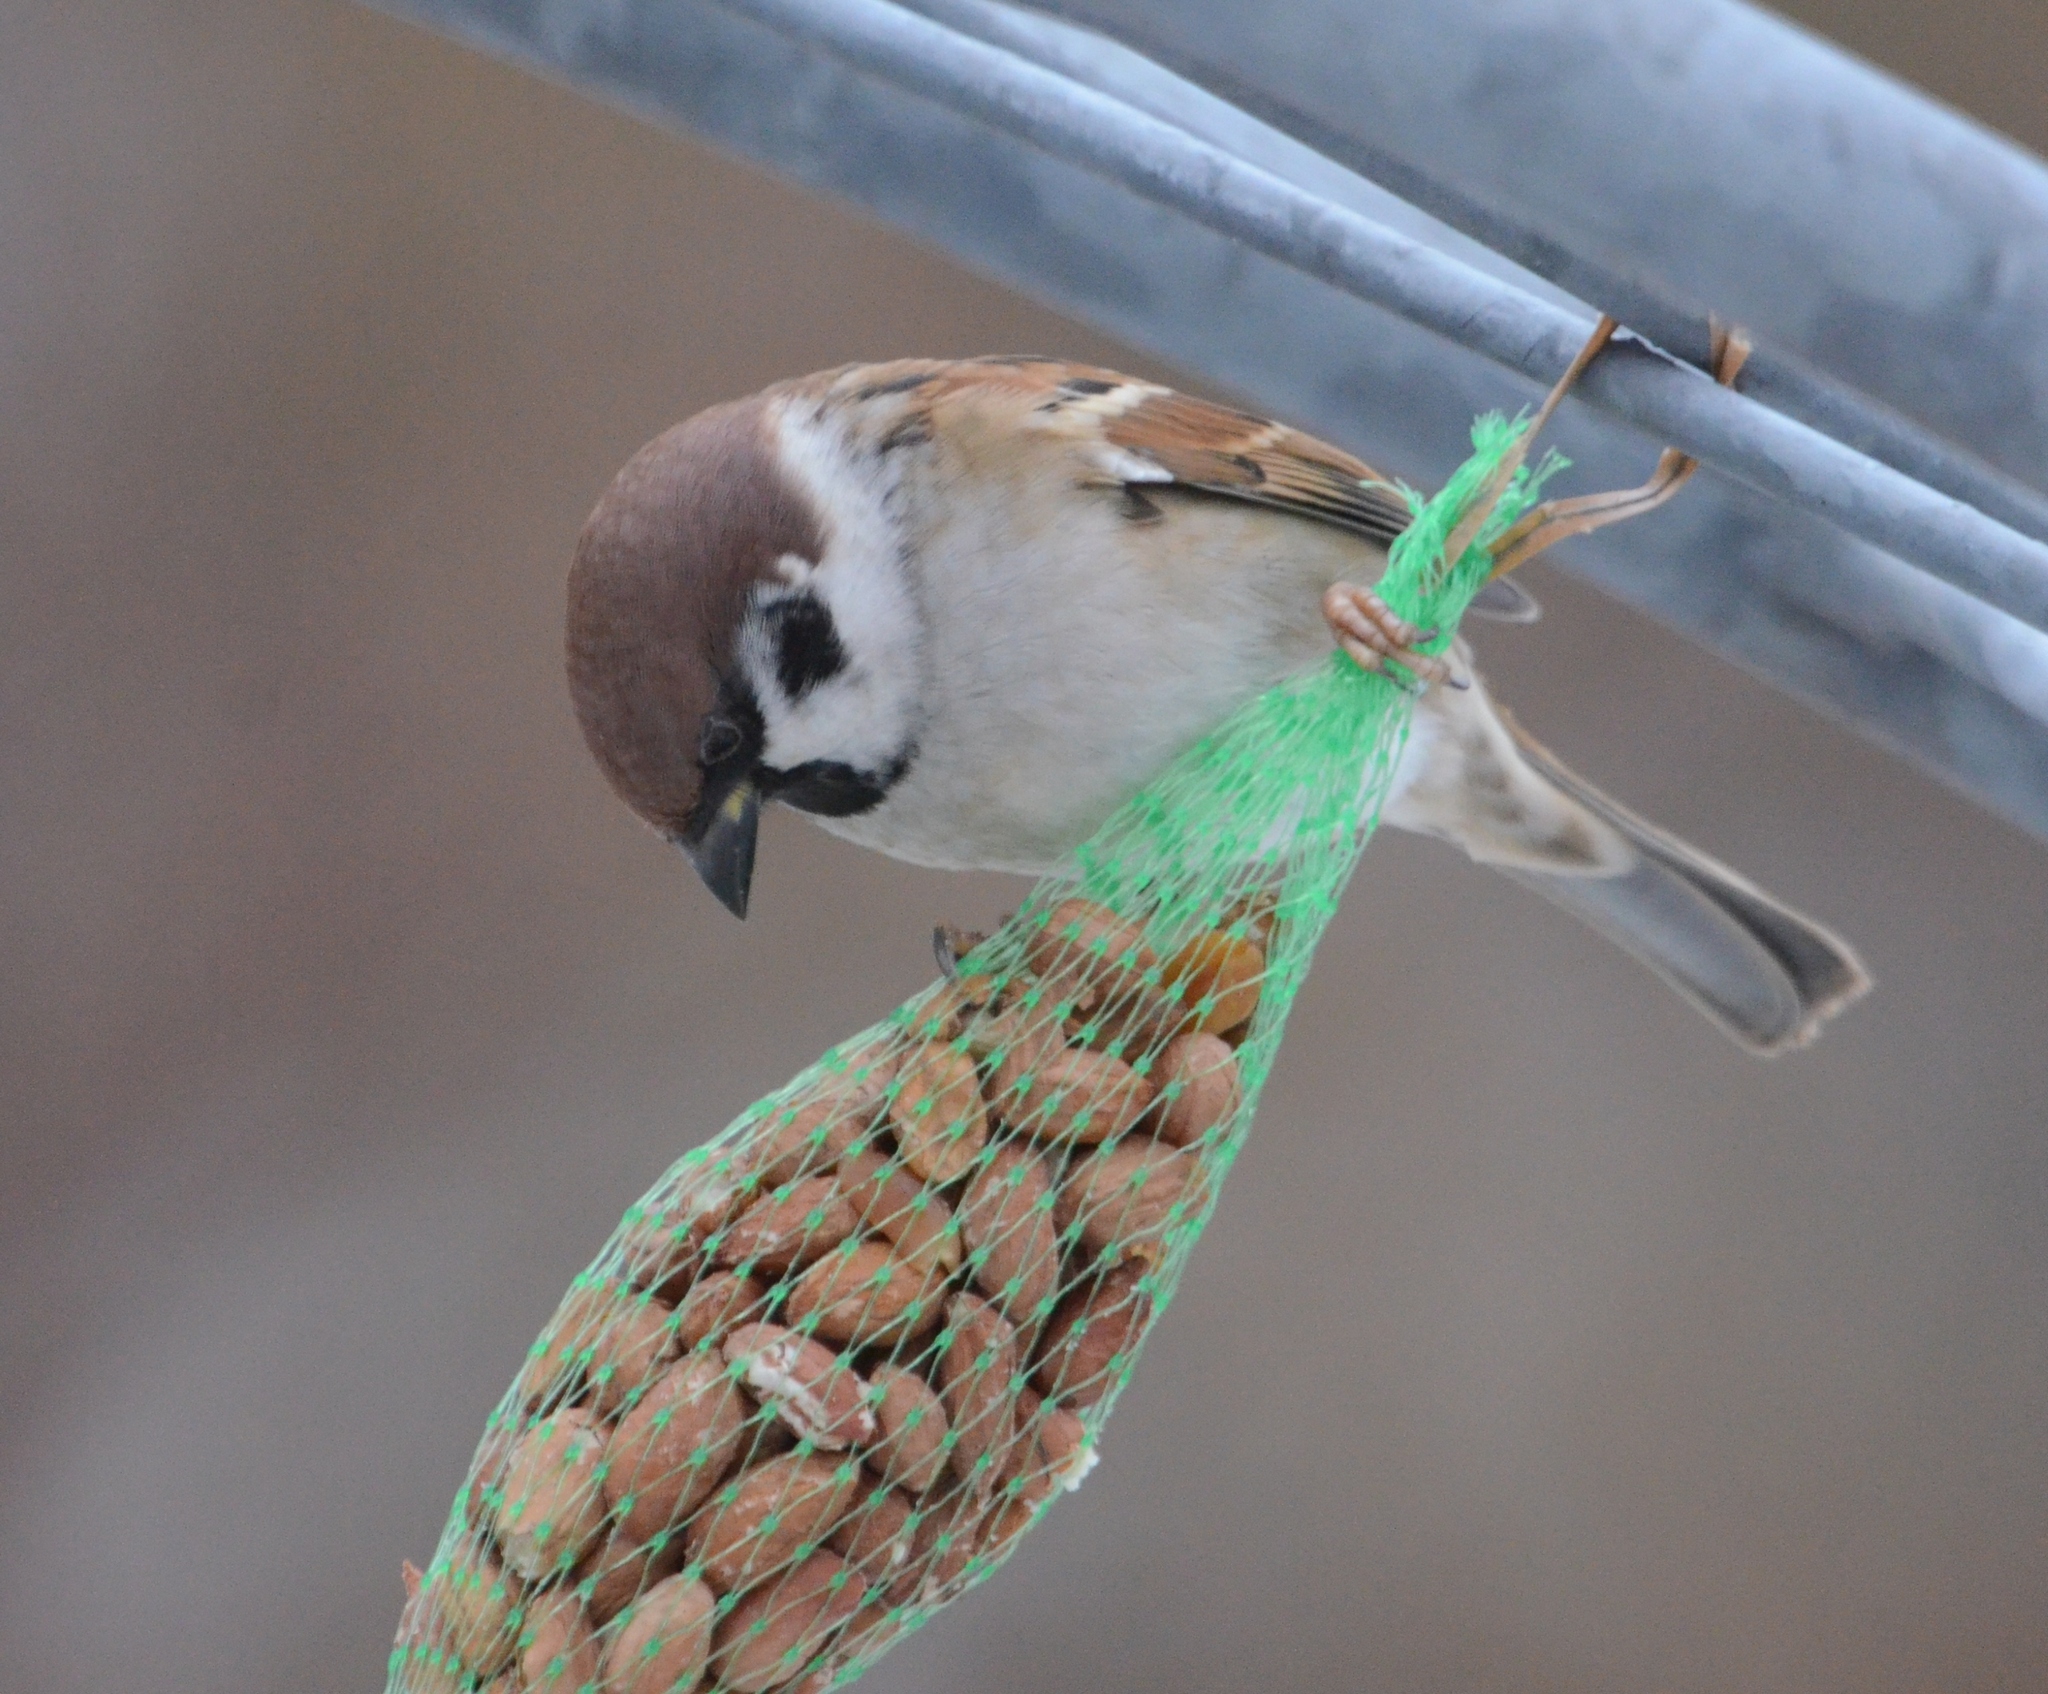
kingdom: Animalia
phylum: Chordata
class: Aves
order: Passeriformes
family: Passeridae
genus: Passer
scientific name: Passer montanus
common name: Eurasian tree sparrow
